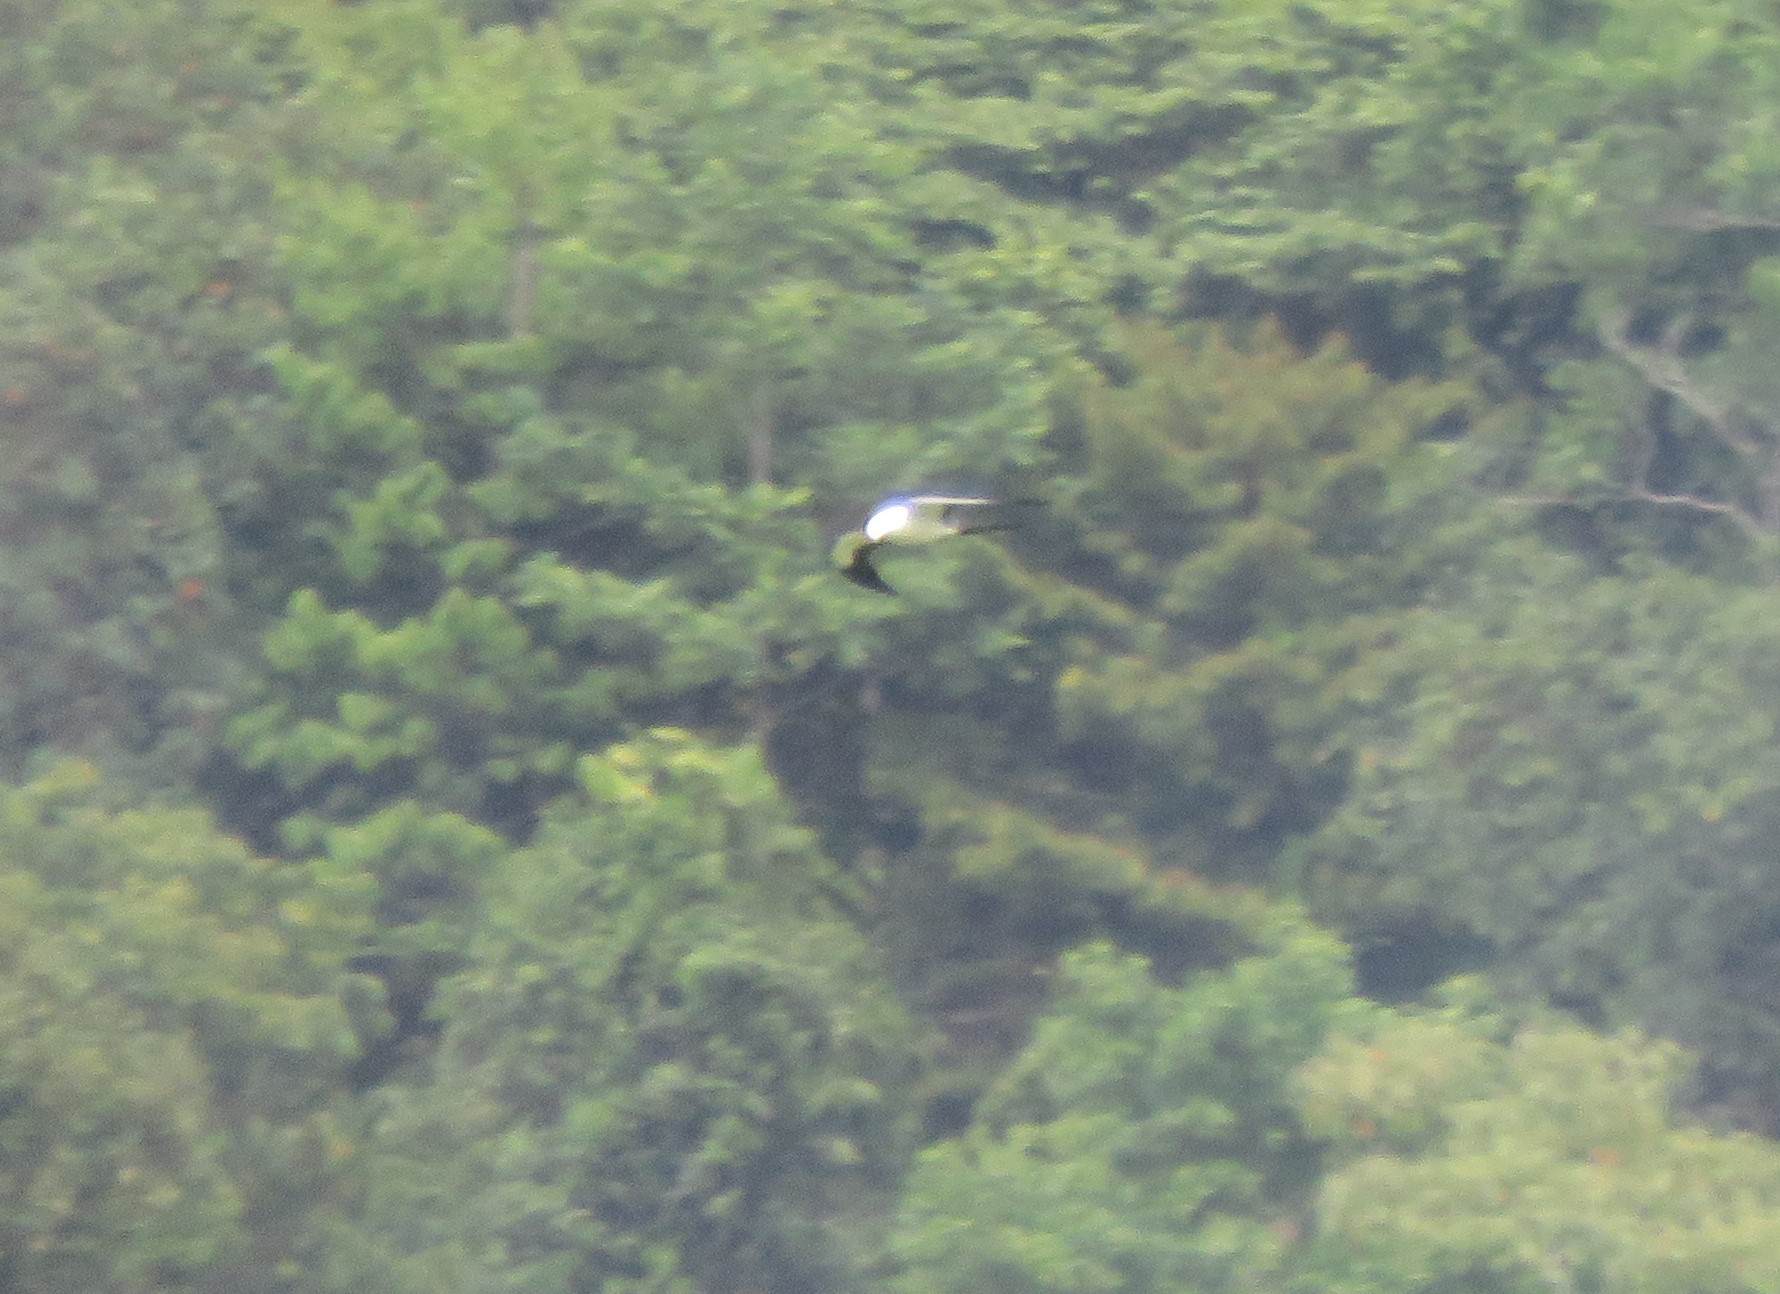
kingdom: Animalia
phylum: Chordata
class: Aves
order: Accipitriformes
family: Accipitridae
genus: Elanoides
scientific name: Elanoides forficatus
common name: Swallow-tailed kite
